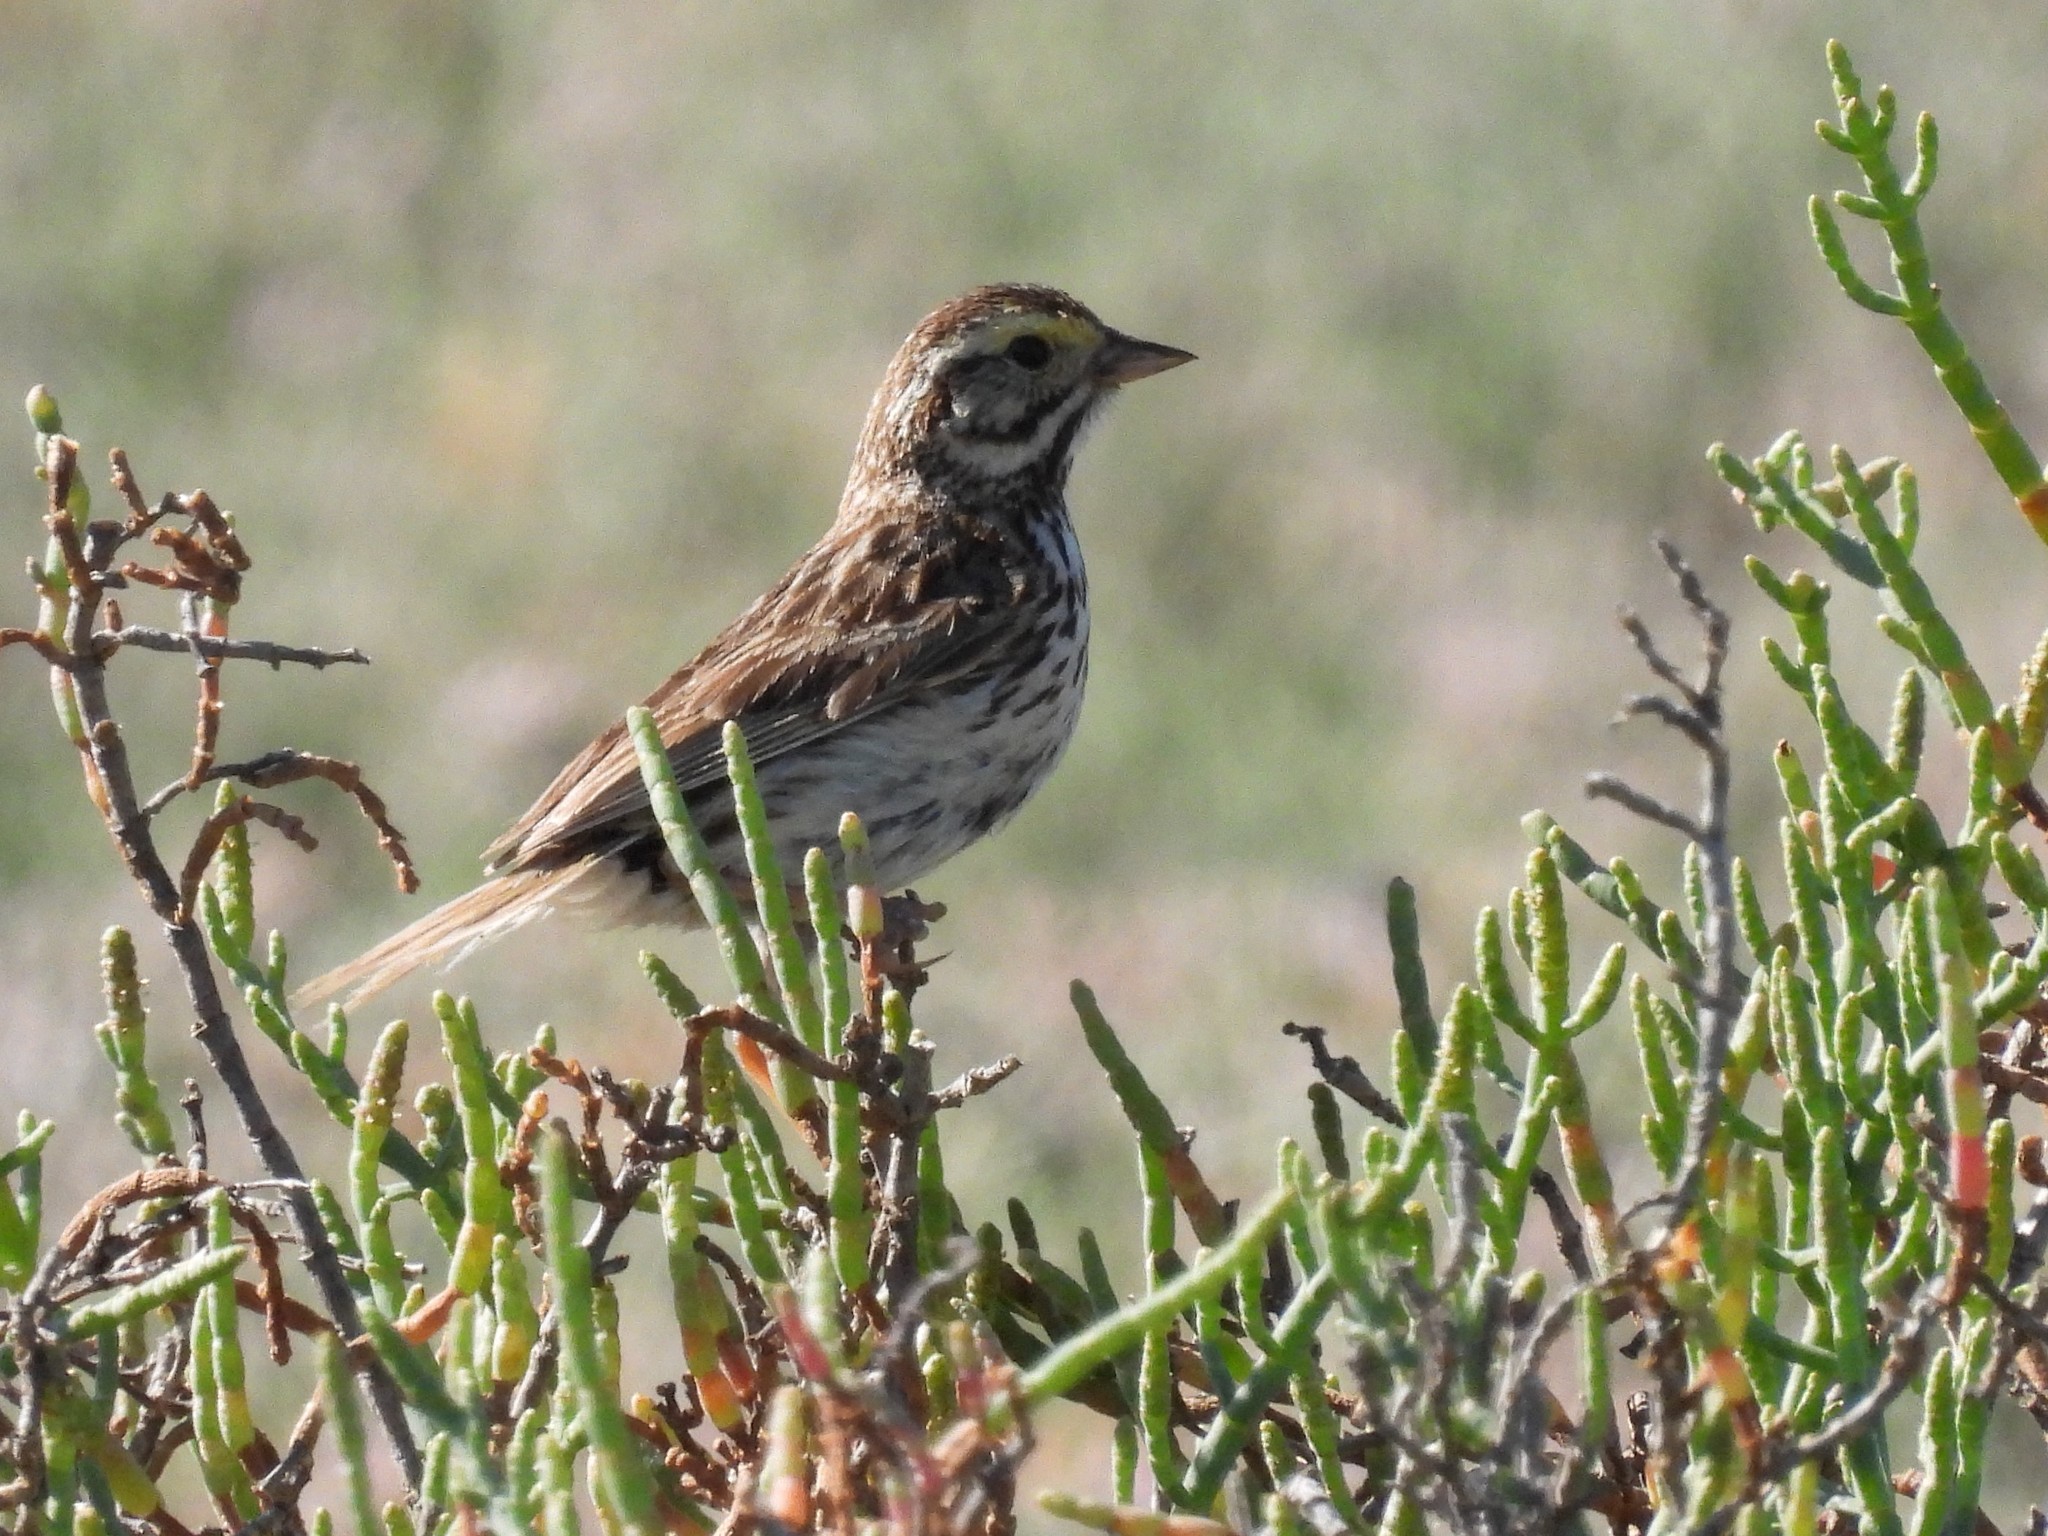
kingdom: Animalia
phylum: Chordata
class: Aves
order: Passeriformes
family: Passerellidae
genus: Passerculus
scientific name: Passerculus sandwichensis
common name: Savannah sparrow
